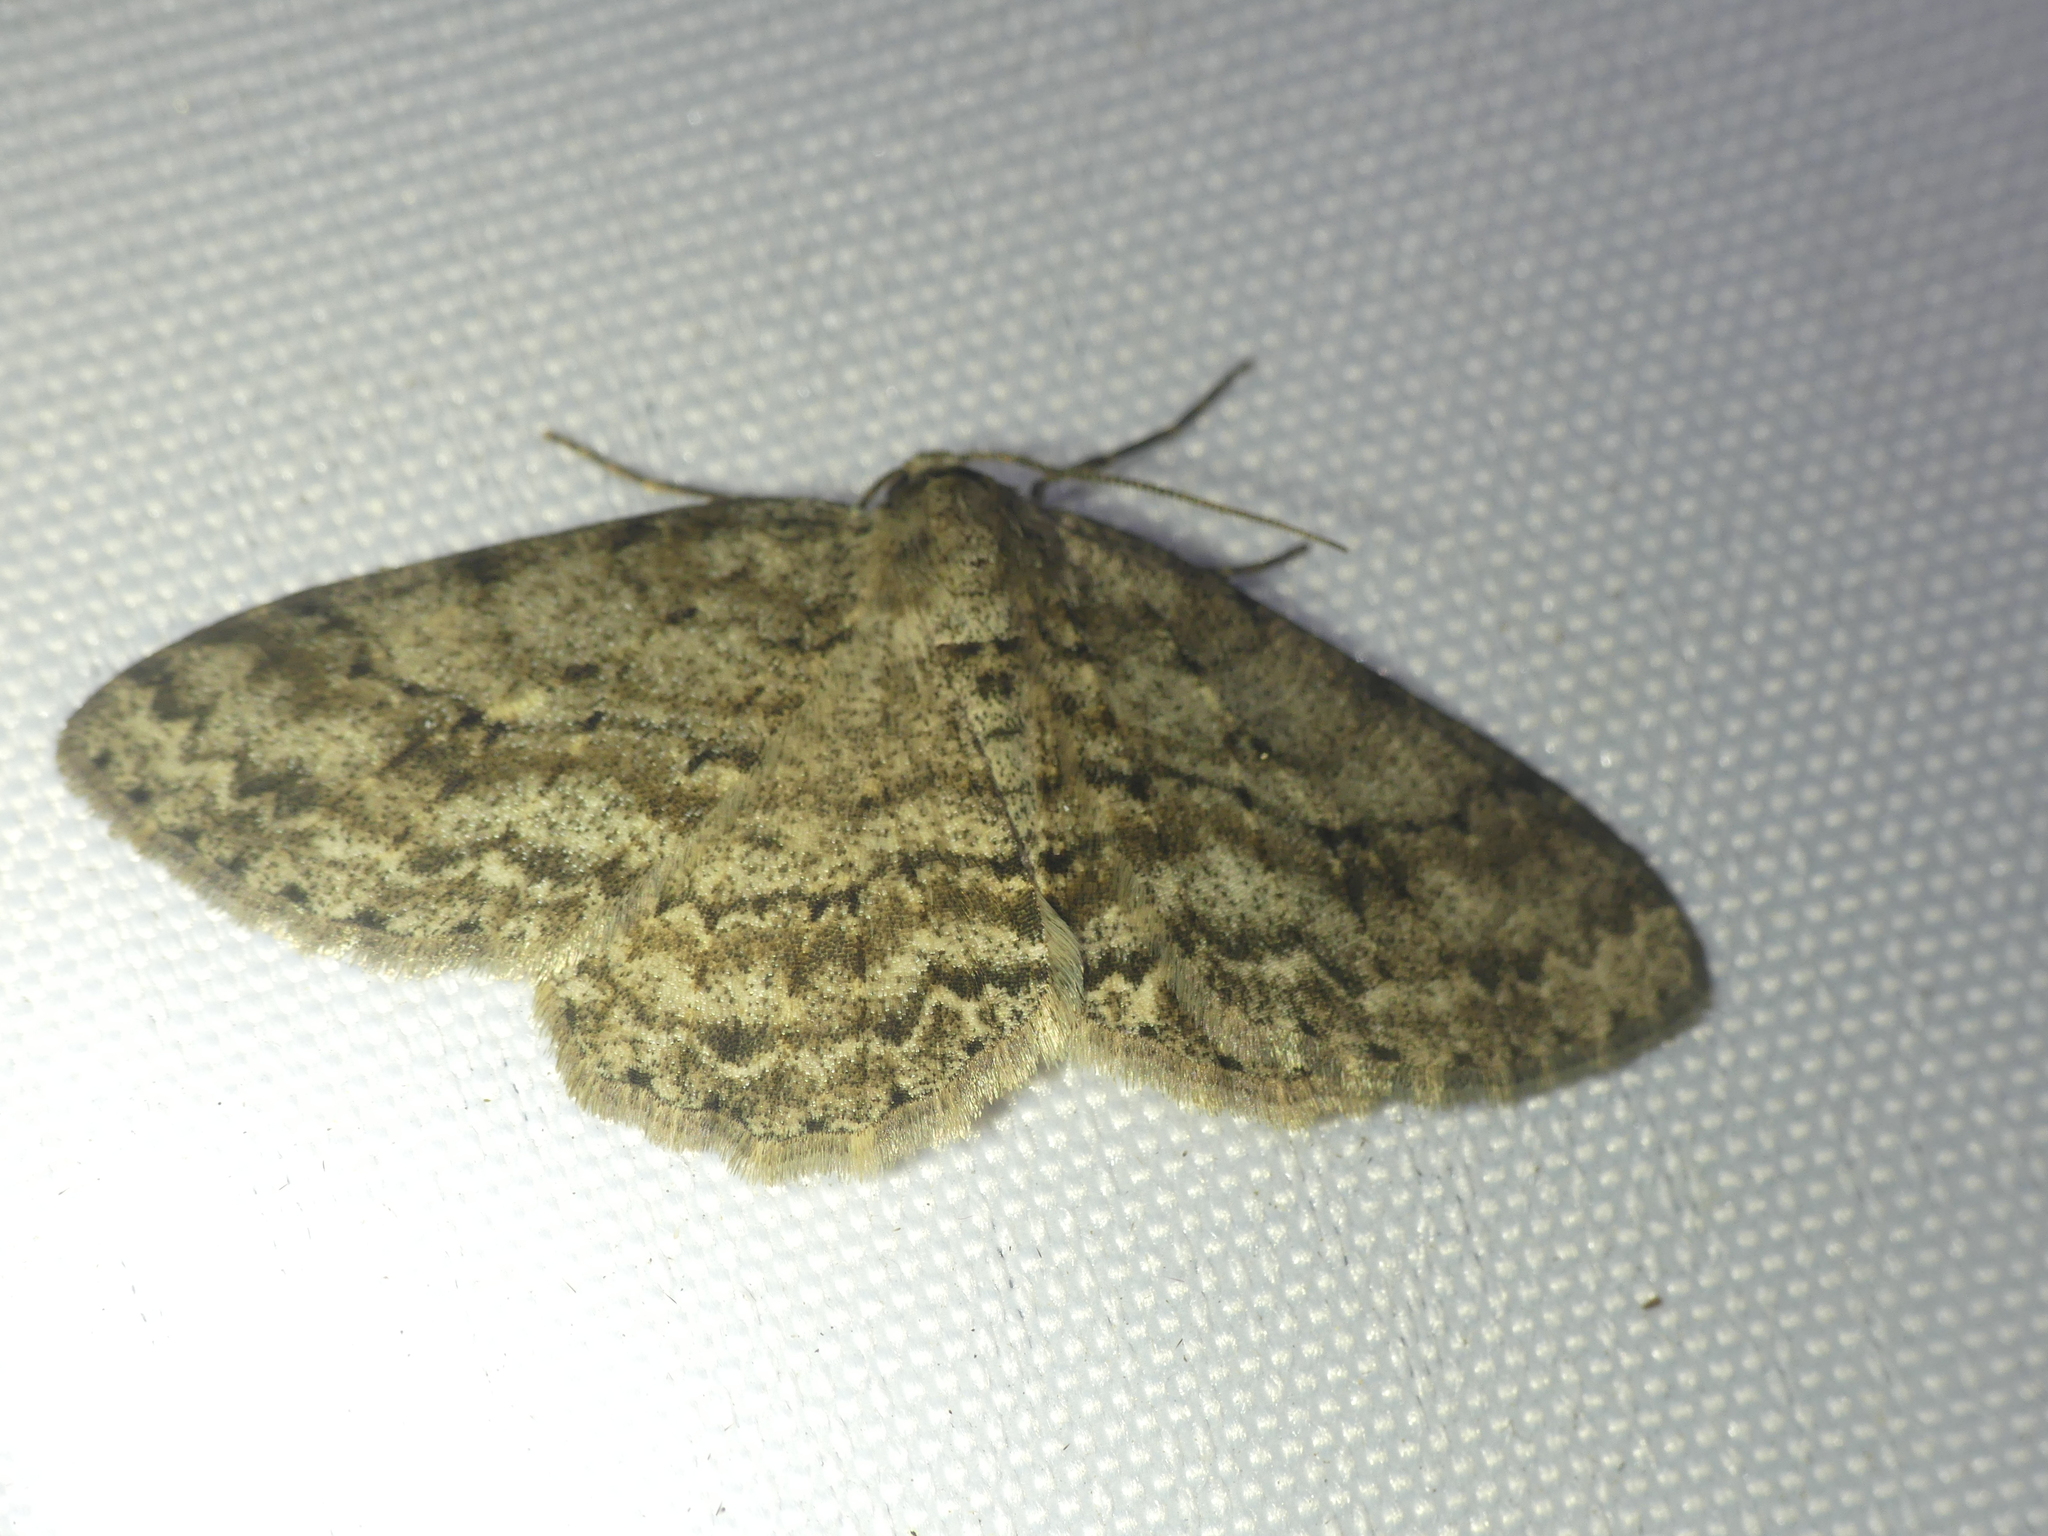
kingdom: Animalia
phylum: Arthropoda
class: Insecta
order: Lepidoptera
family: Geometridae
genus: Ectropis
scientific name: Ectropis crepuscularia
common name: Engrailed
